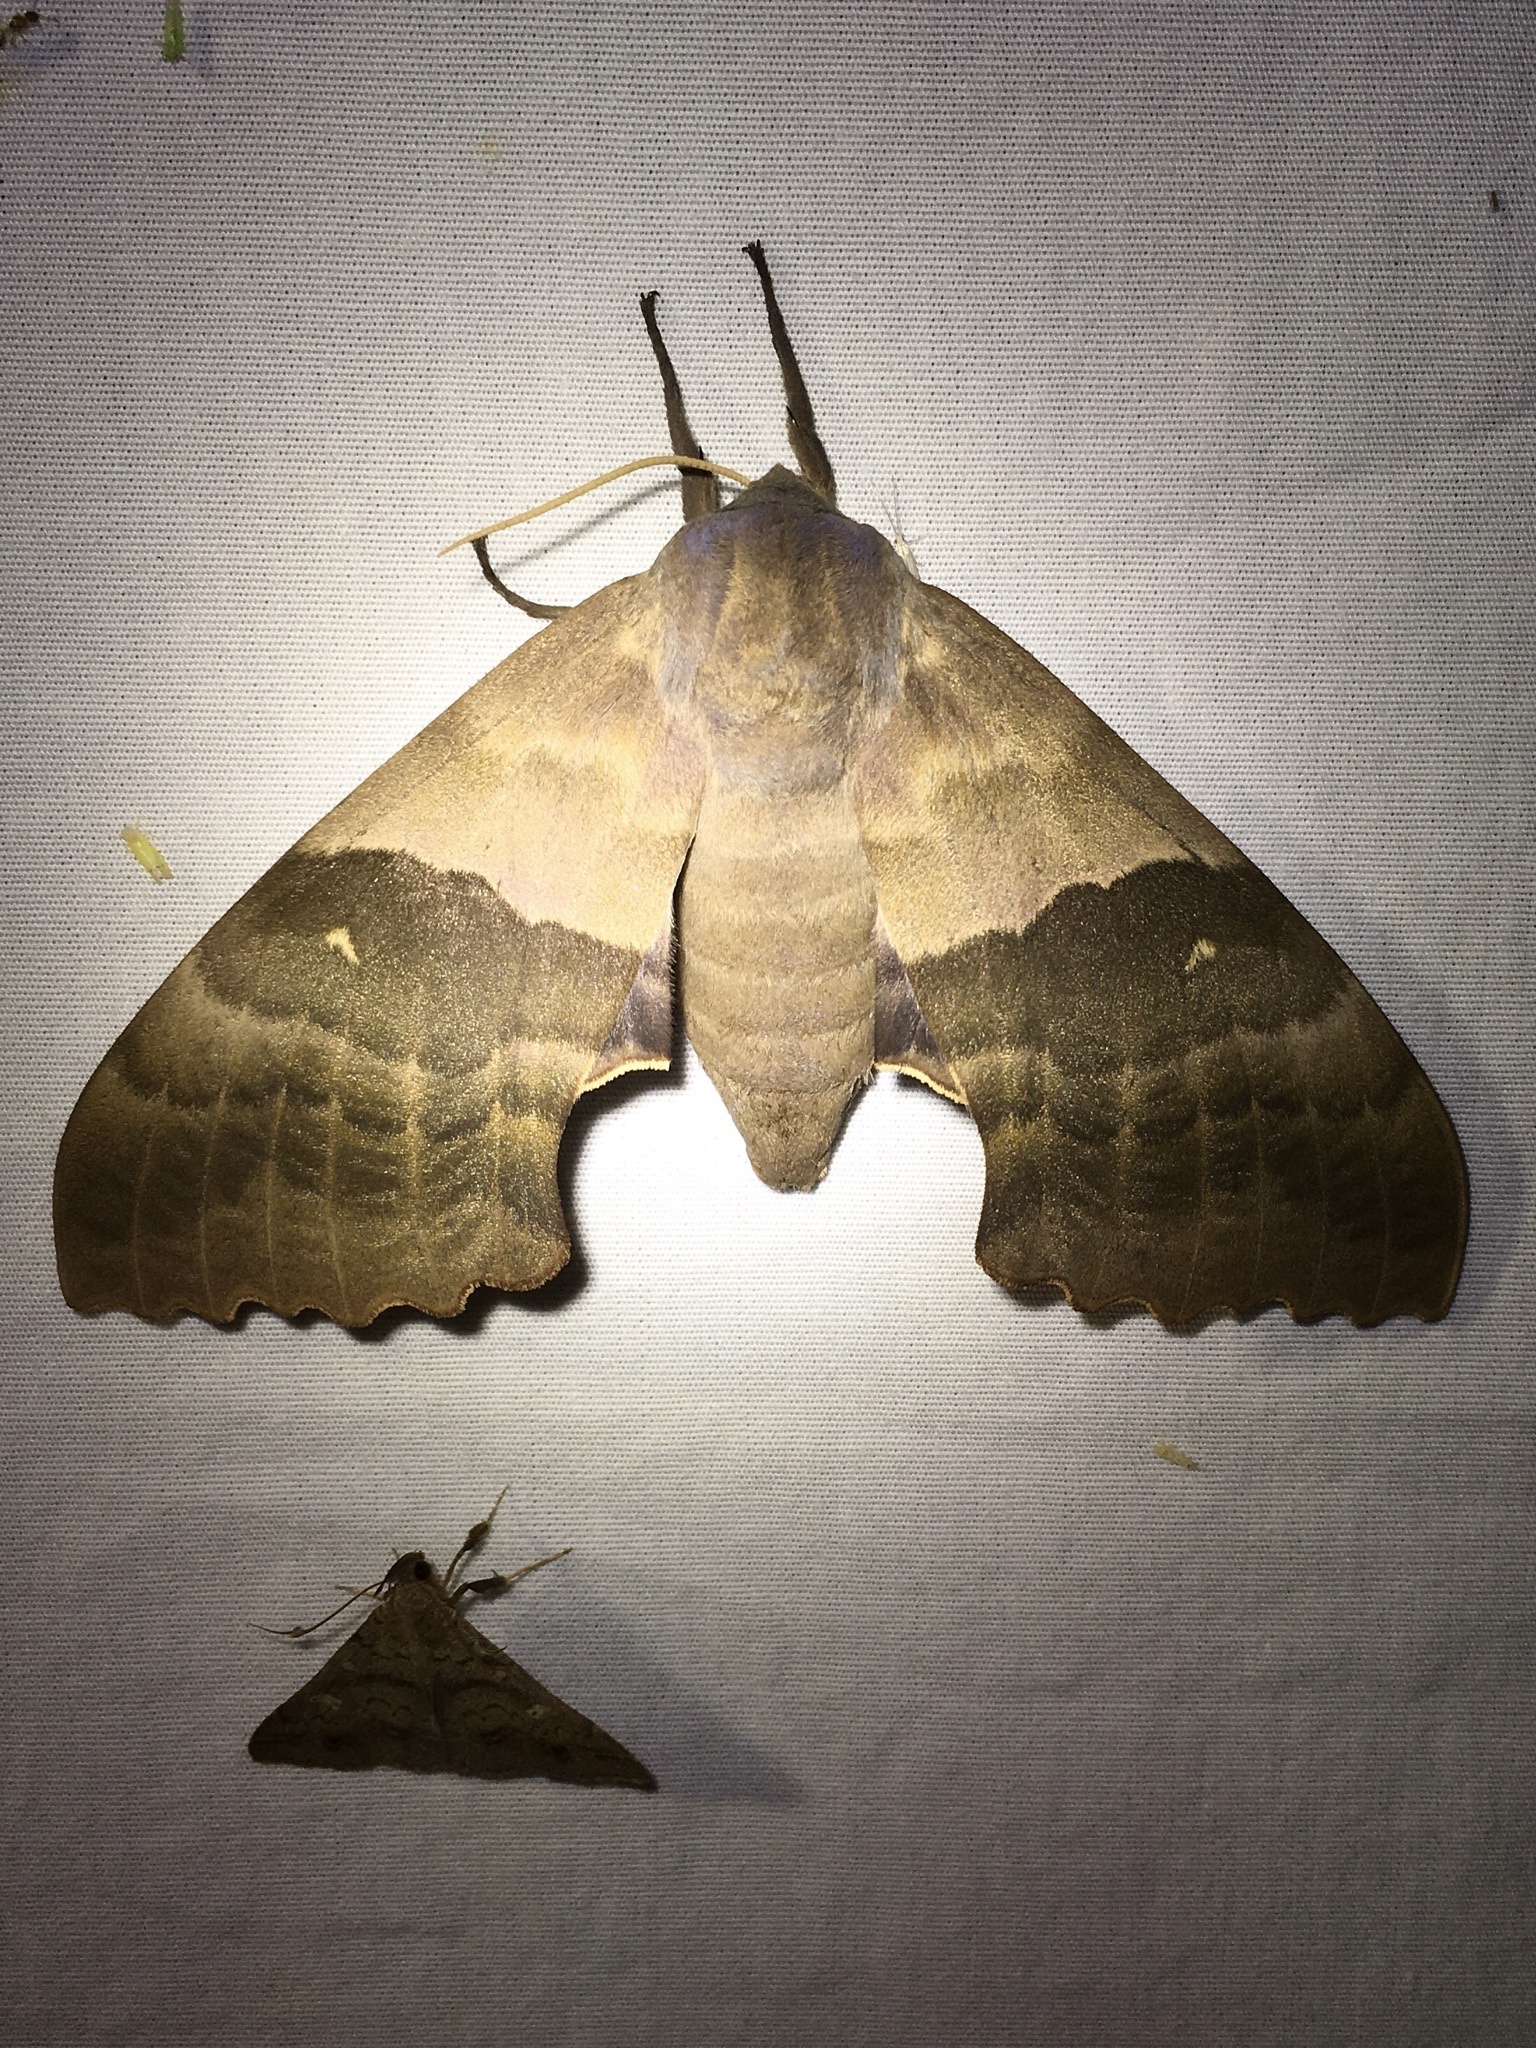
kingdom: Animalia
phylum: Arthropoda
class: Insecta
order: Lepidoptera
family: Sphingidae
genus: Pachysphinx
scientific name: Pachysphinx modesta
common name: Big poplar sphinx
